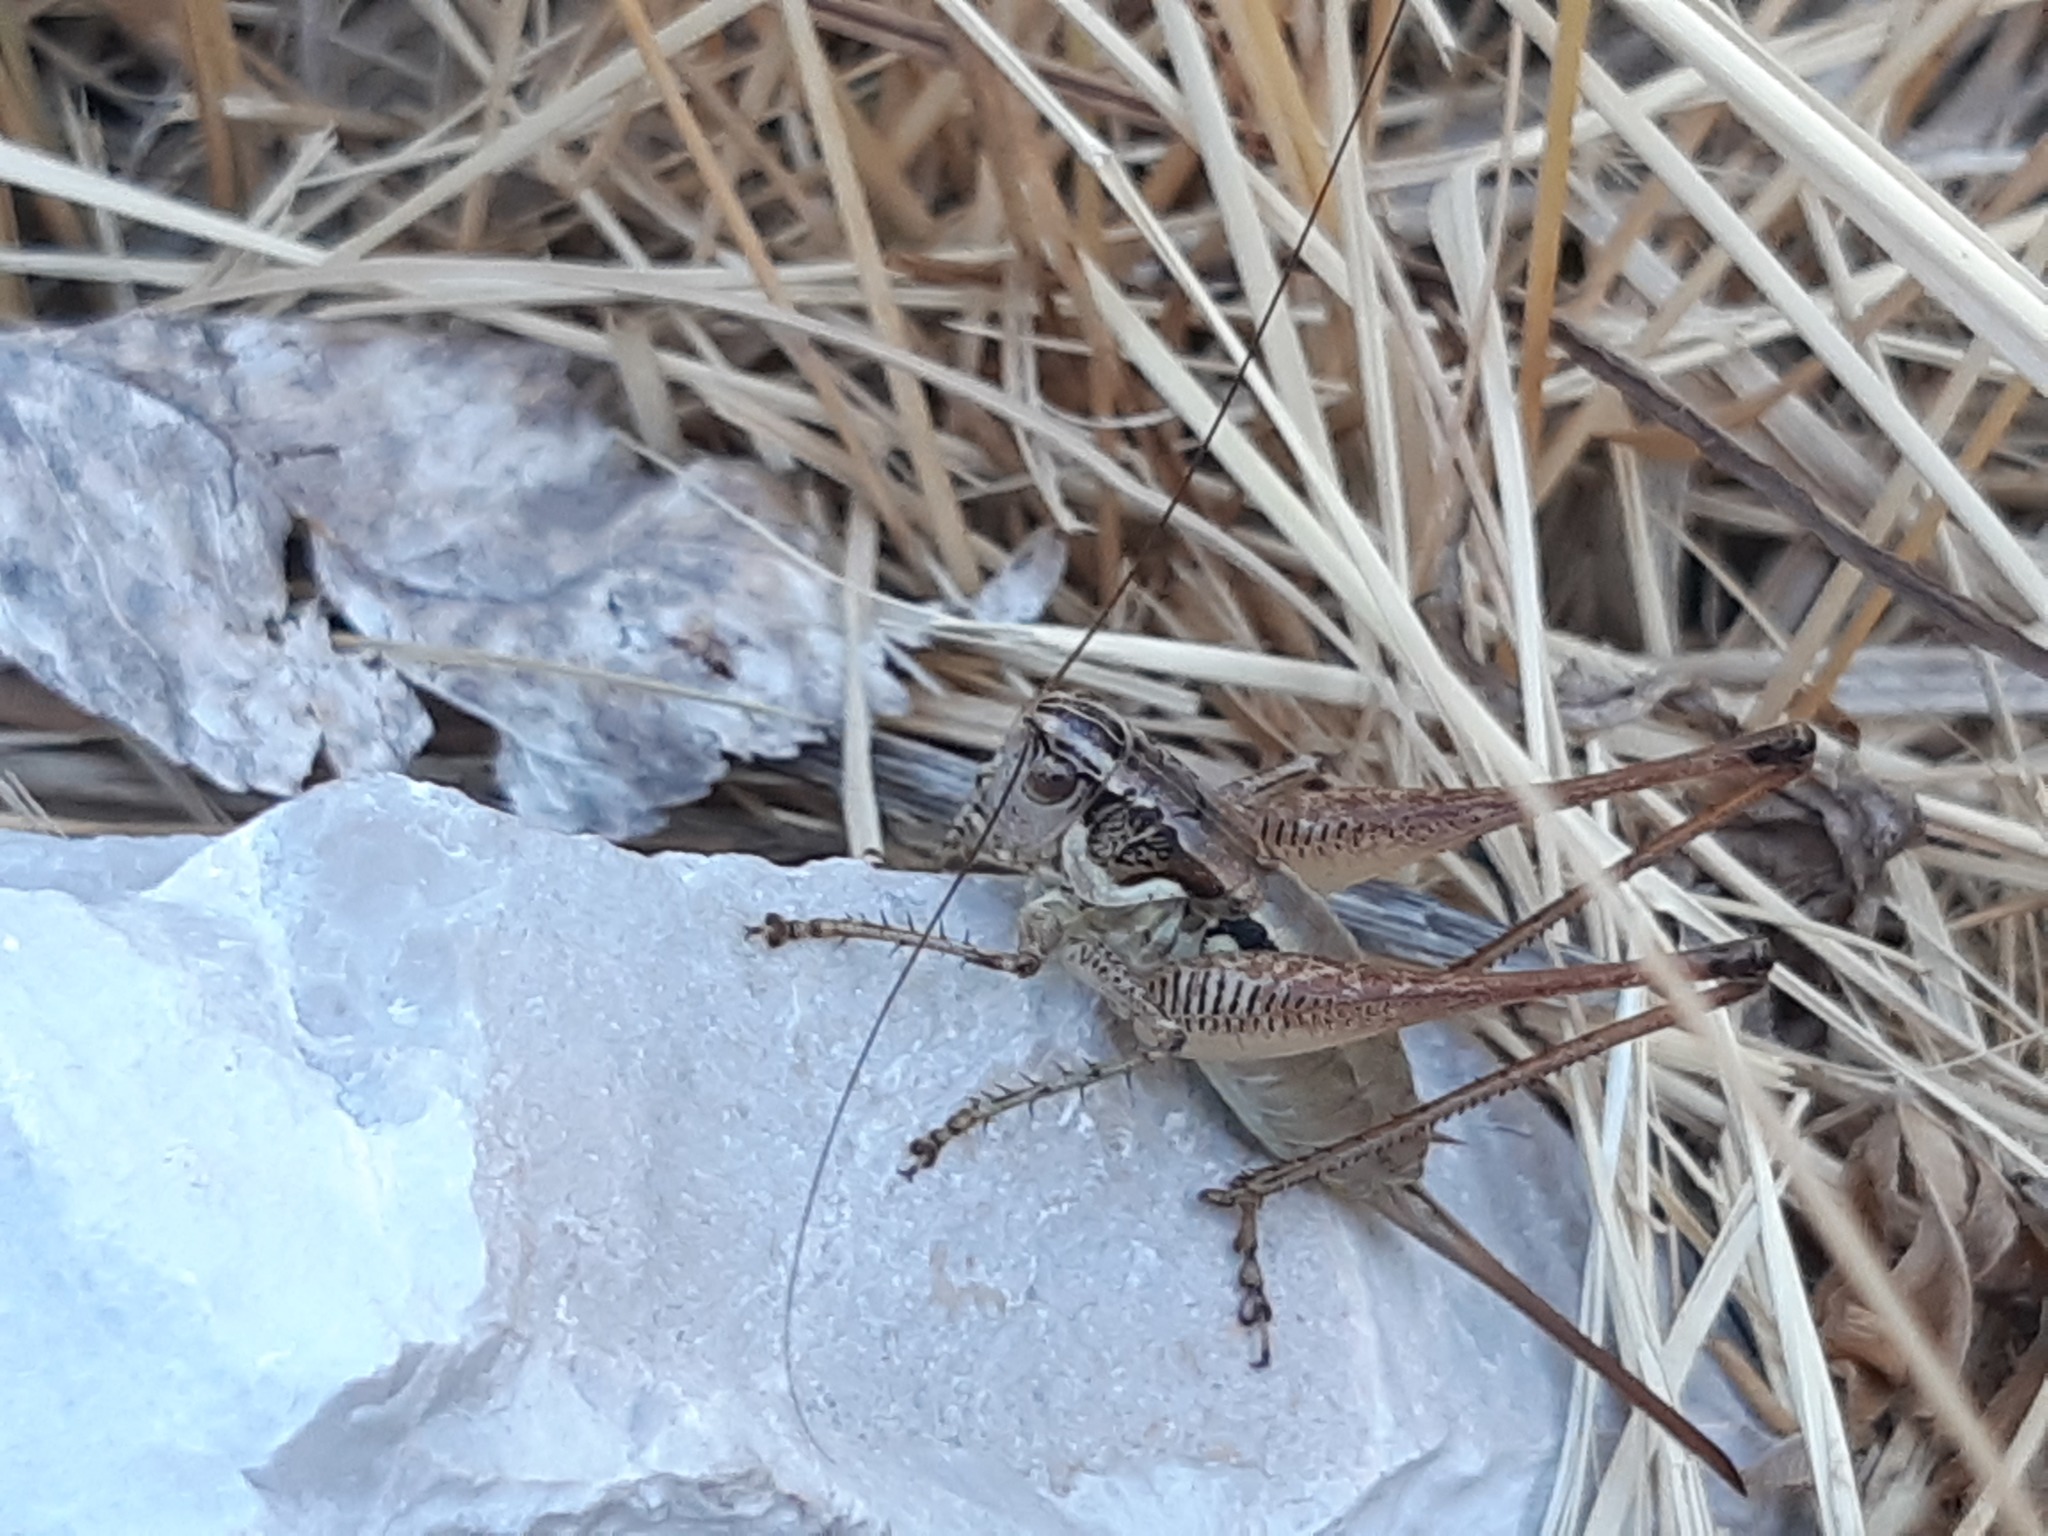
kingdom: Animalia
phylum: Arthropoda
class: Insecta
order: Orthoptera
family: Tettigoniidae
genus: Pachytrachis
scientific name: Pachytrachis striolatus
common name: Striated bush-cricket
